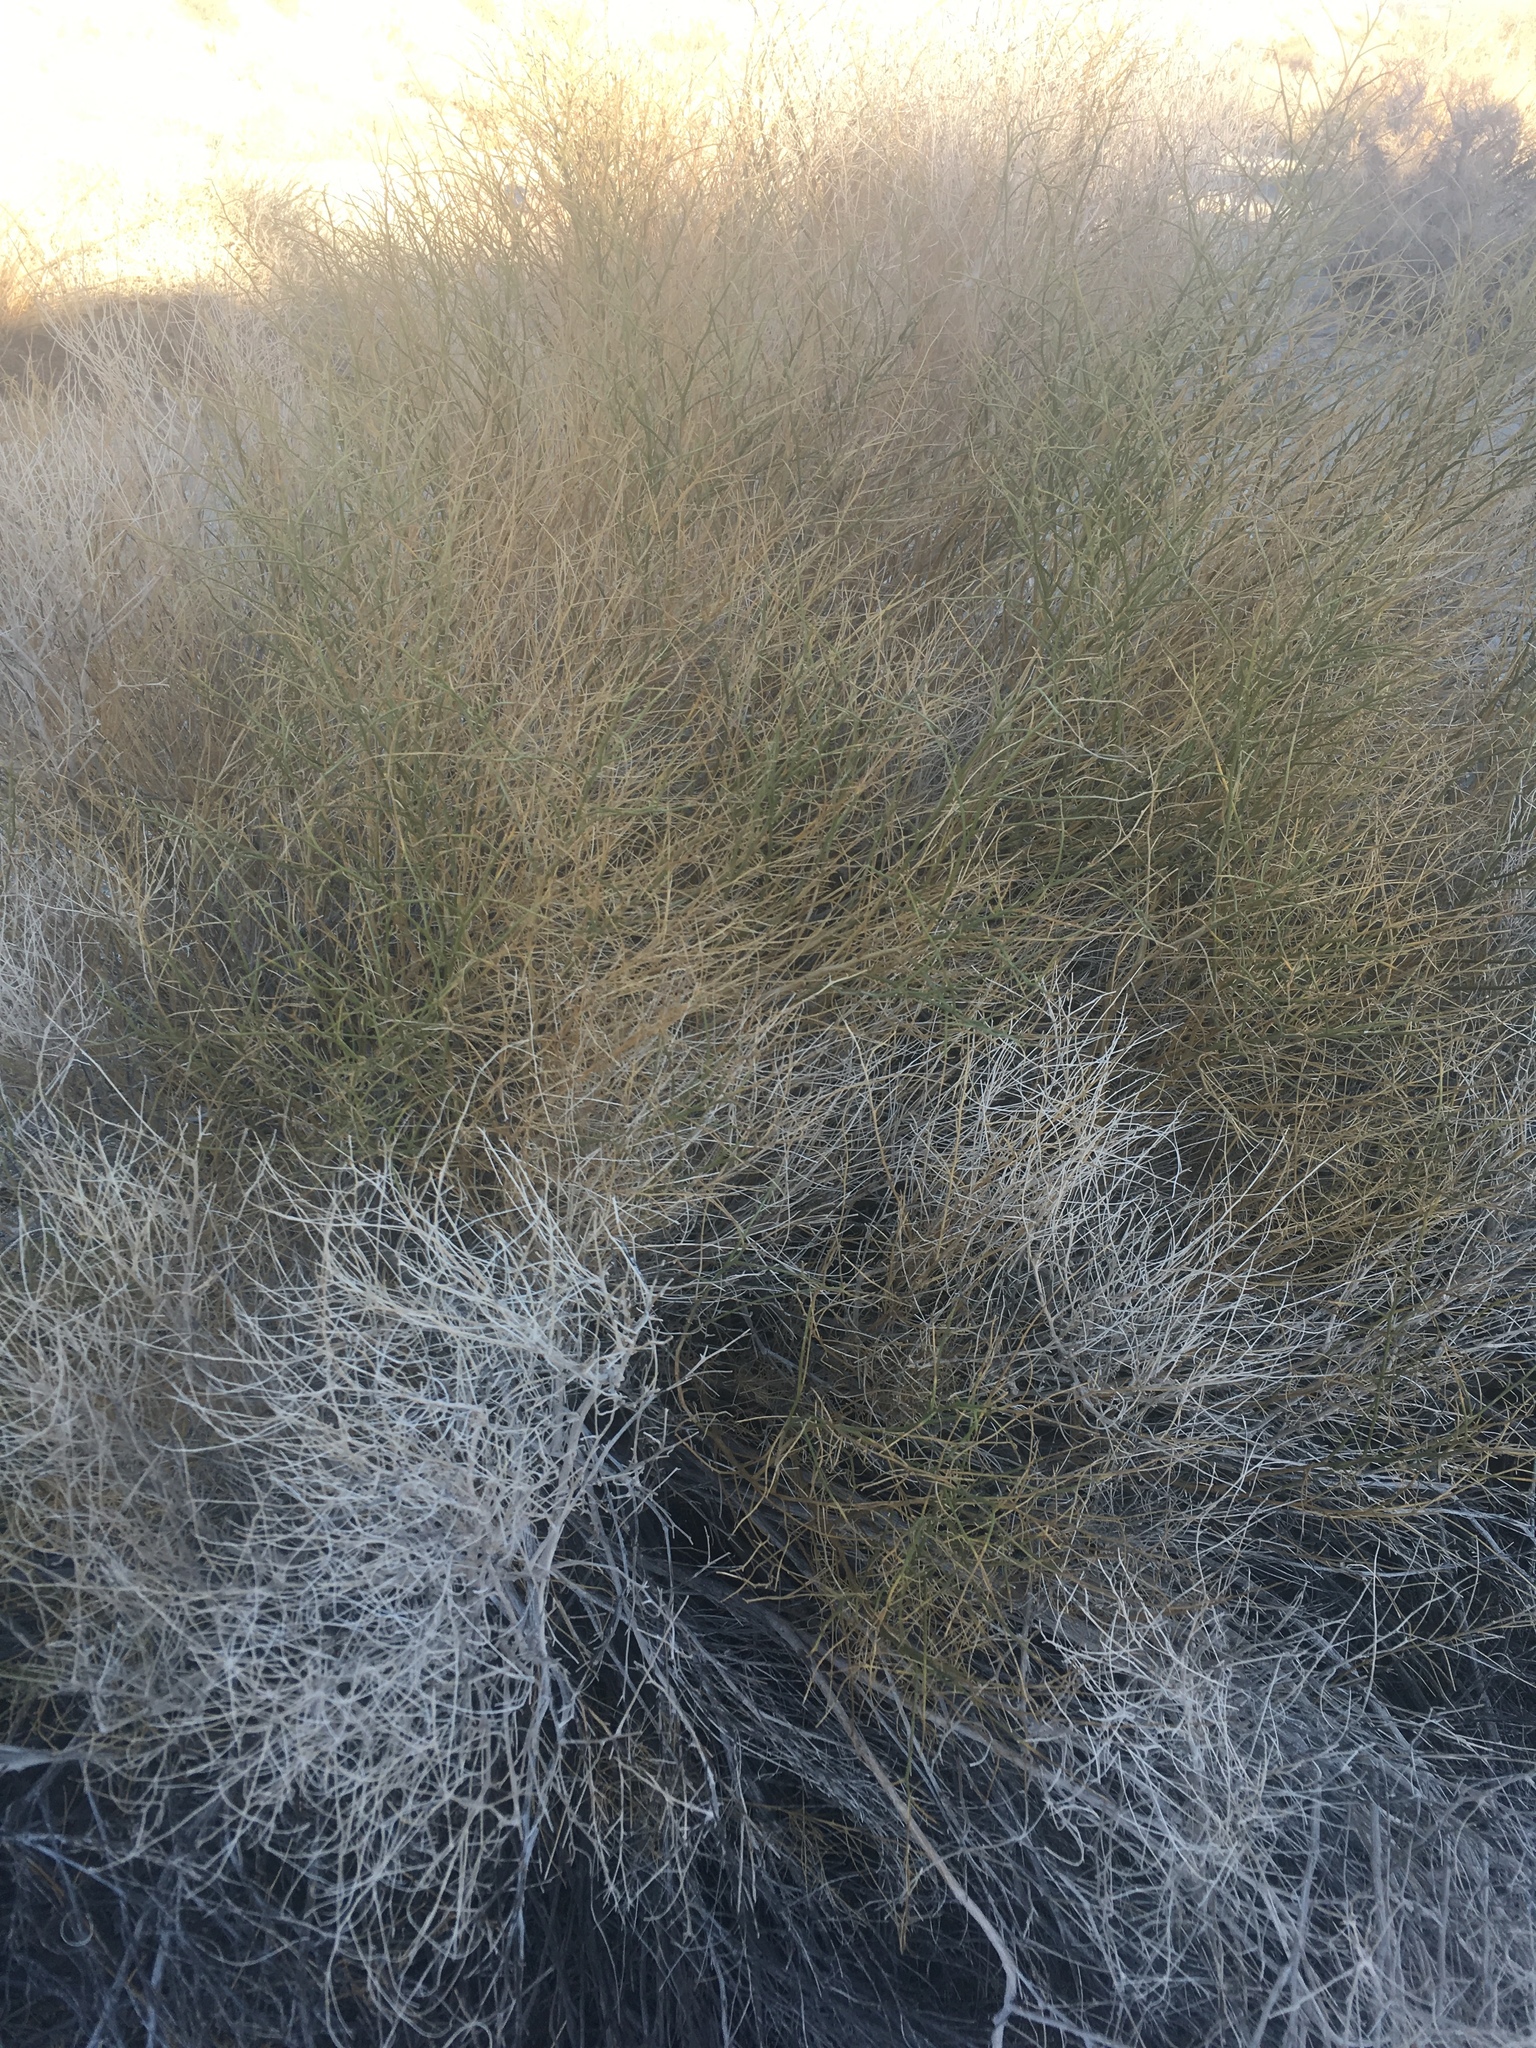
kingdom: Plantae
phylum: Tracheophyta
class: Magnoliopsida
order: Asterales
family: Asteraceae
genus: Ambrosia
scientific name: Ambrosia salsola
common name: Burrobrush
